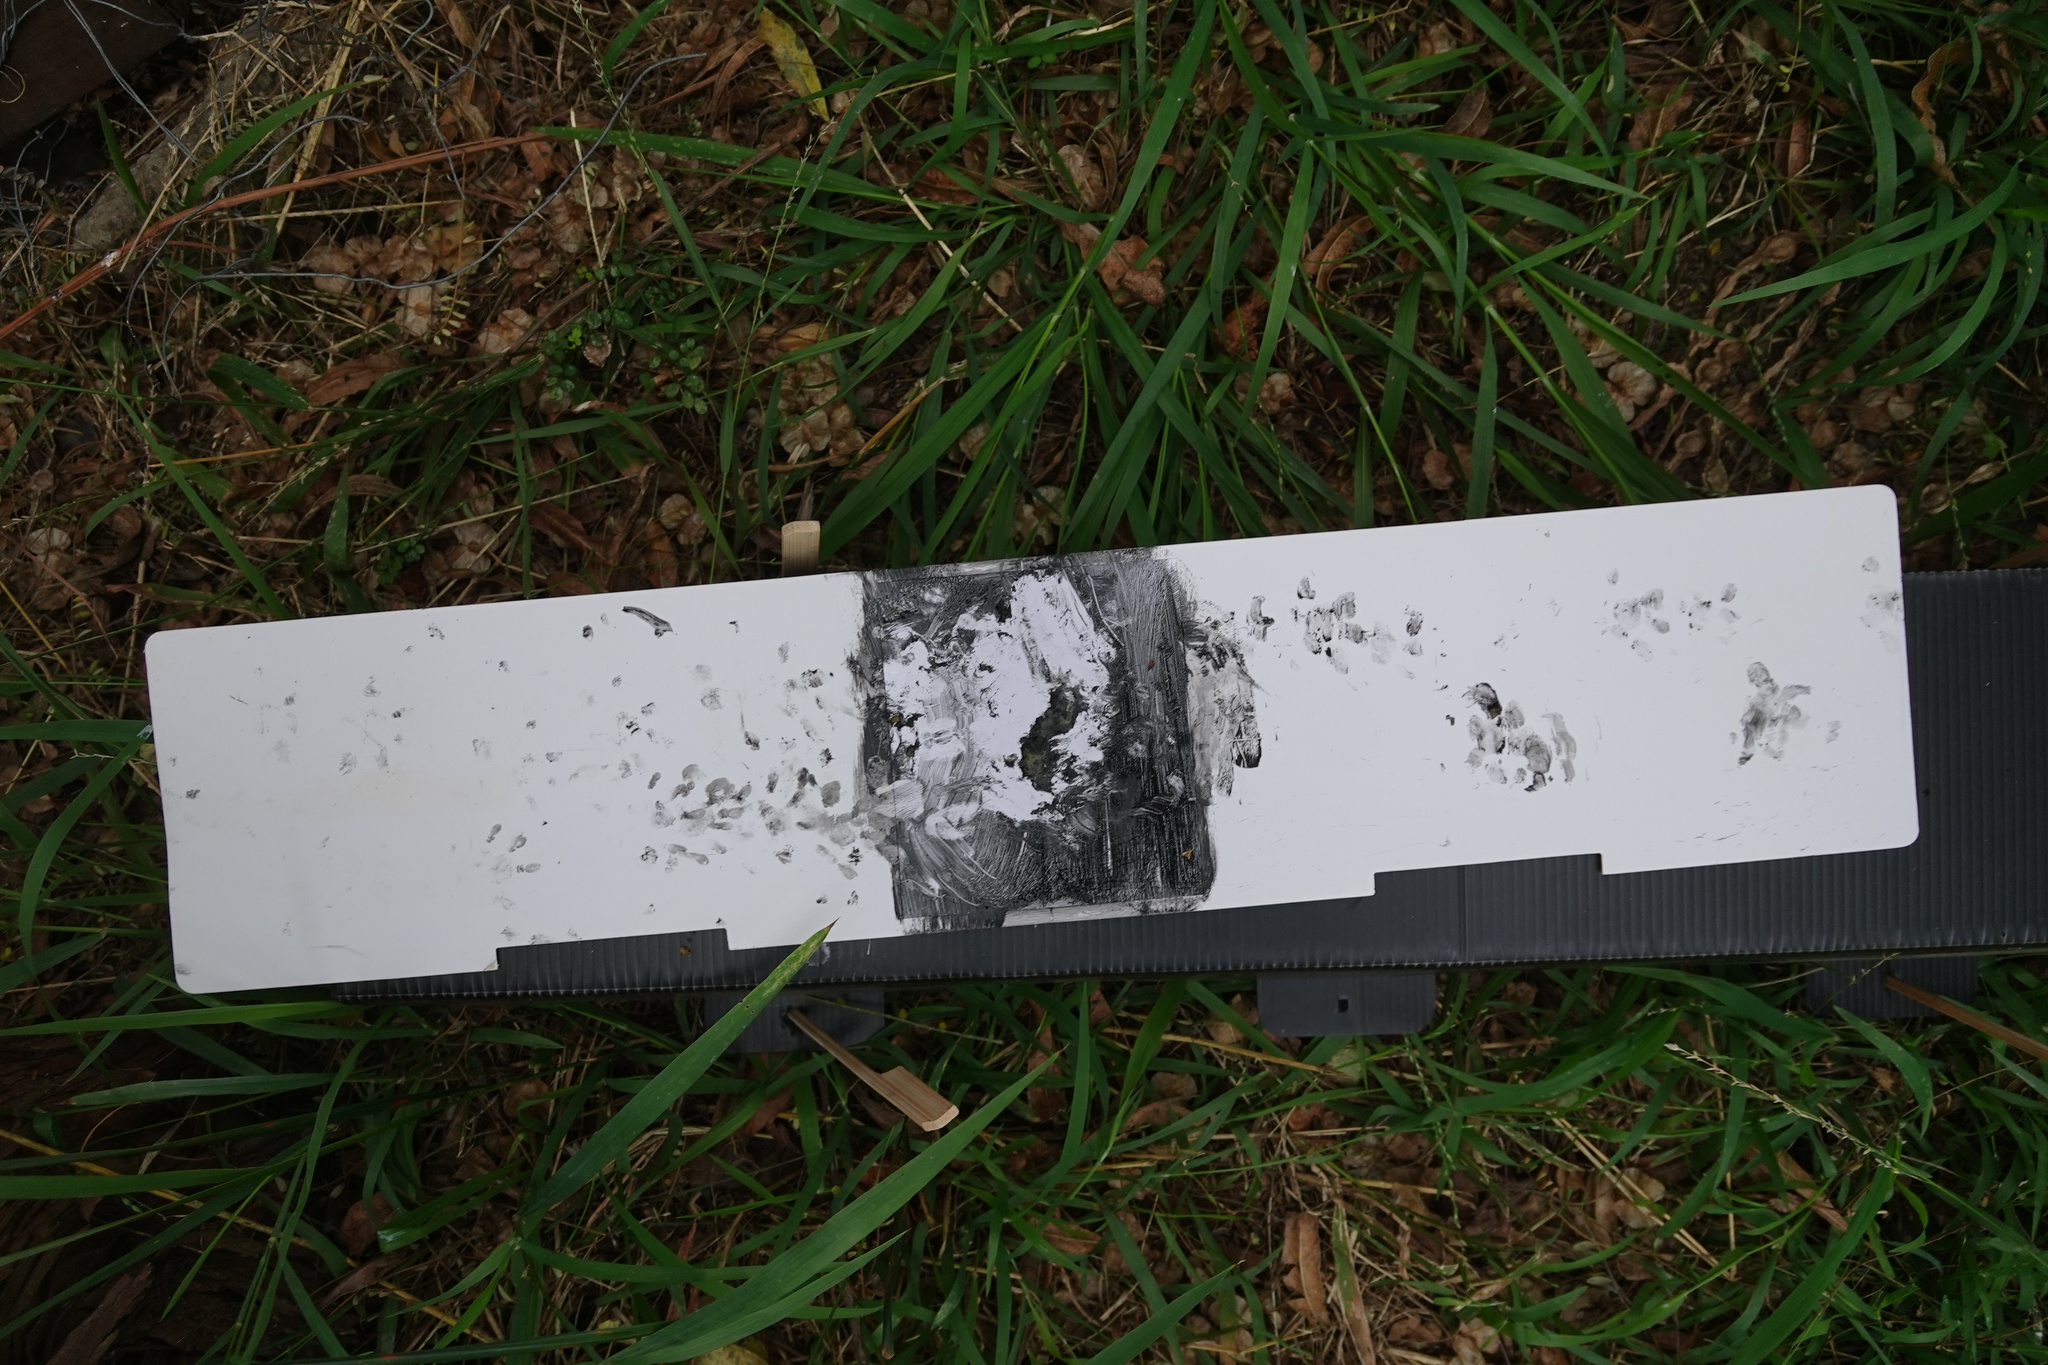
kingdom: Animalia
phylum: Chordata
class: Mammalia
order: Erinaceomorpha
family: Erinaceidae
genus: Erinaceus
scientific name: Erinaceus europaeus
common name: West european hedgehog
